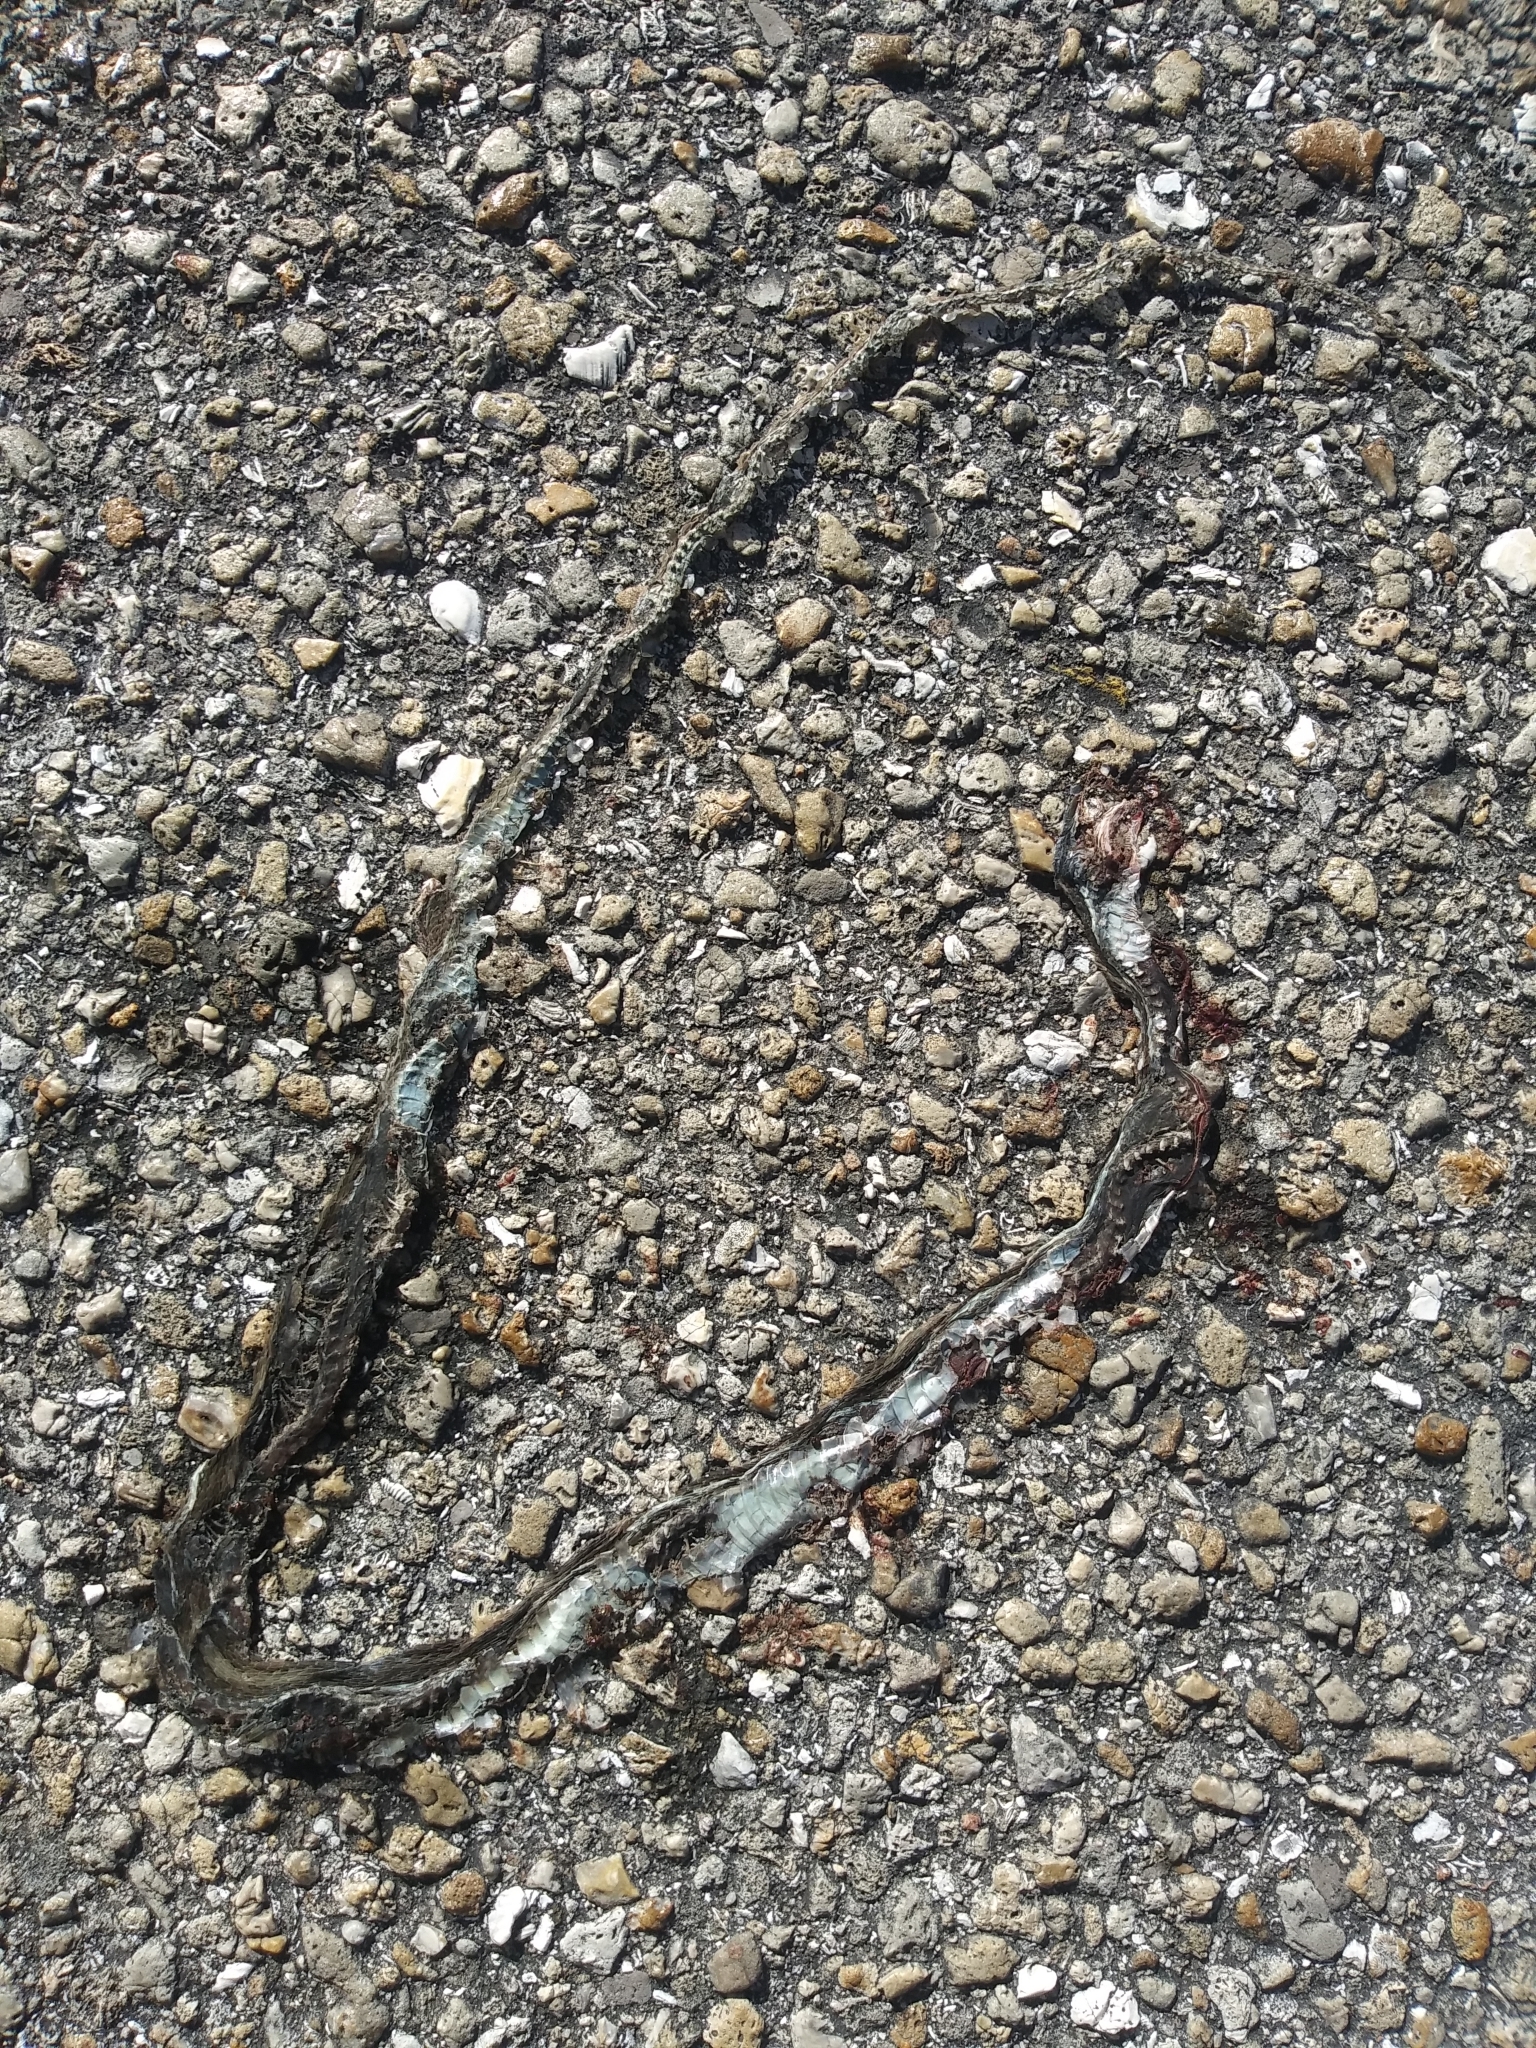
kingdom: Animalia
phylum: Chordata
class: Squamata
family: Colubridae
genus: Thamnophis
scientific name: Thamnophis saurita
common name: Eastern ribbonsnake
